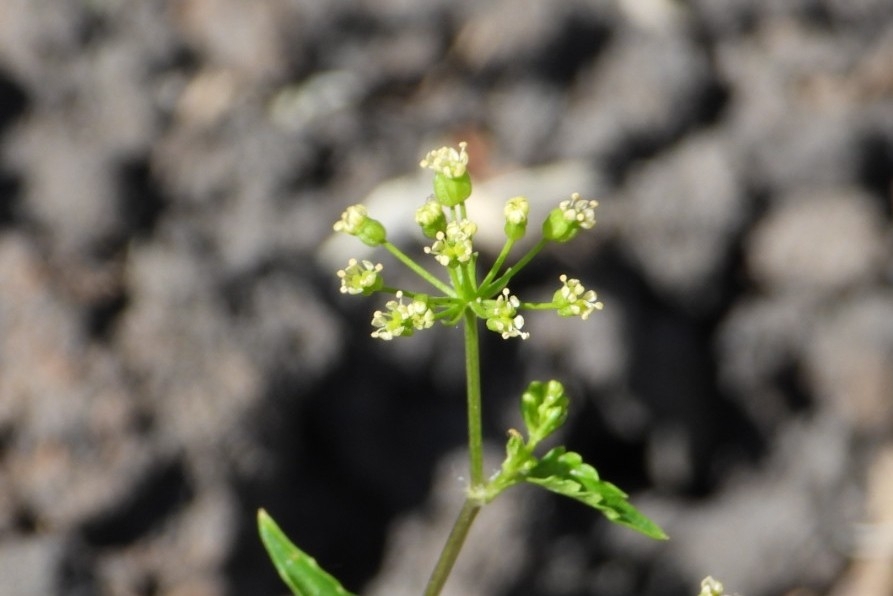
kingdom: Plantae
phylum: Tracheophyta
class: Magnoliopsida
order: Apiales
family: Apiaceae
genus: Apium
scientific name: Apium graveolens
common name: Wild celery
